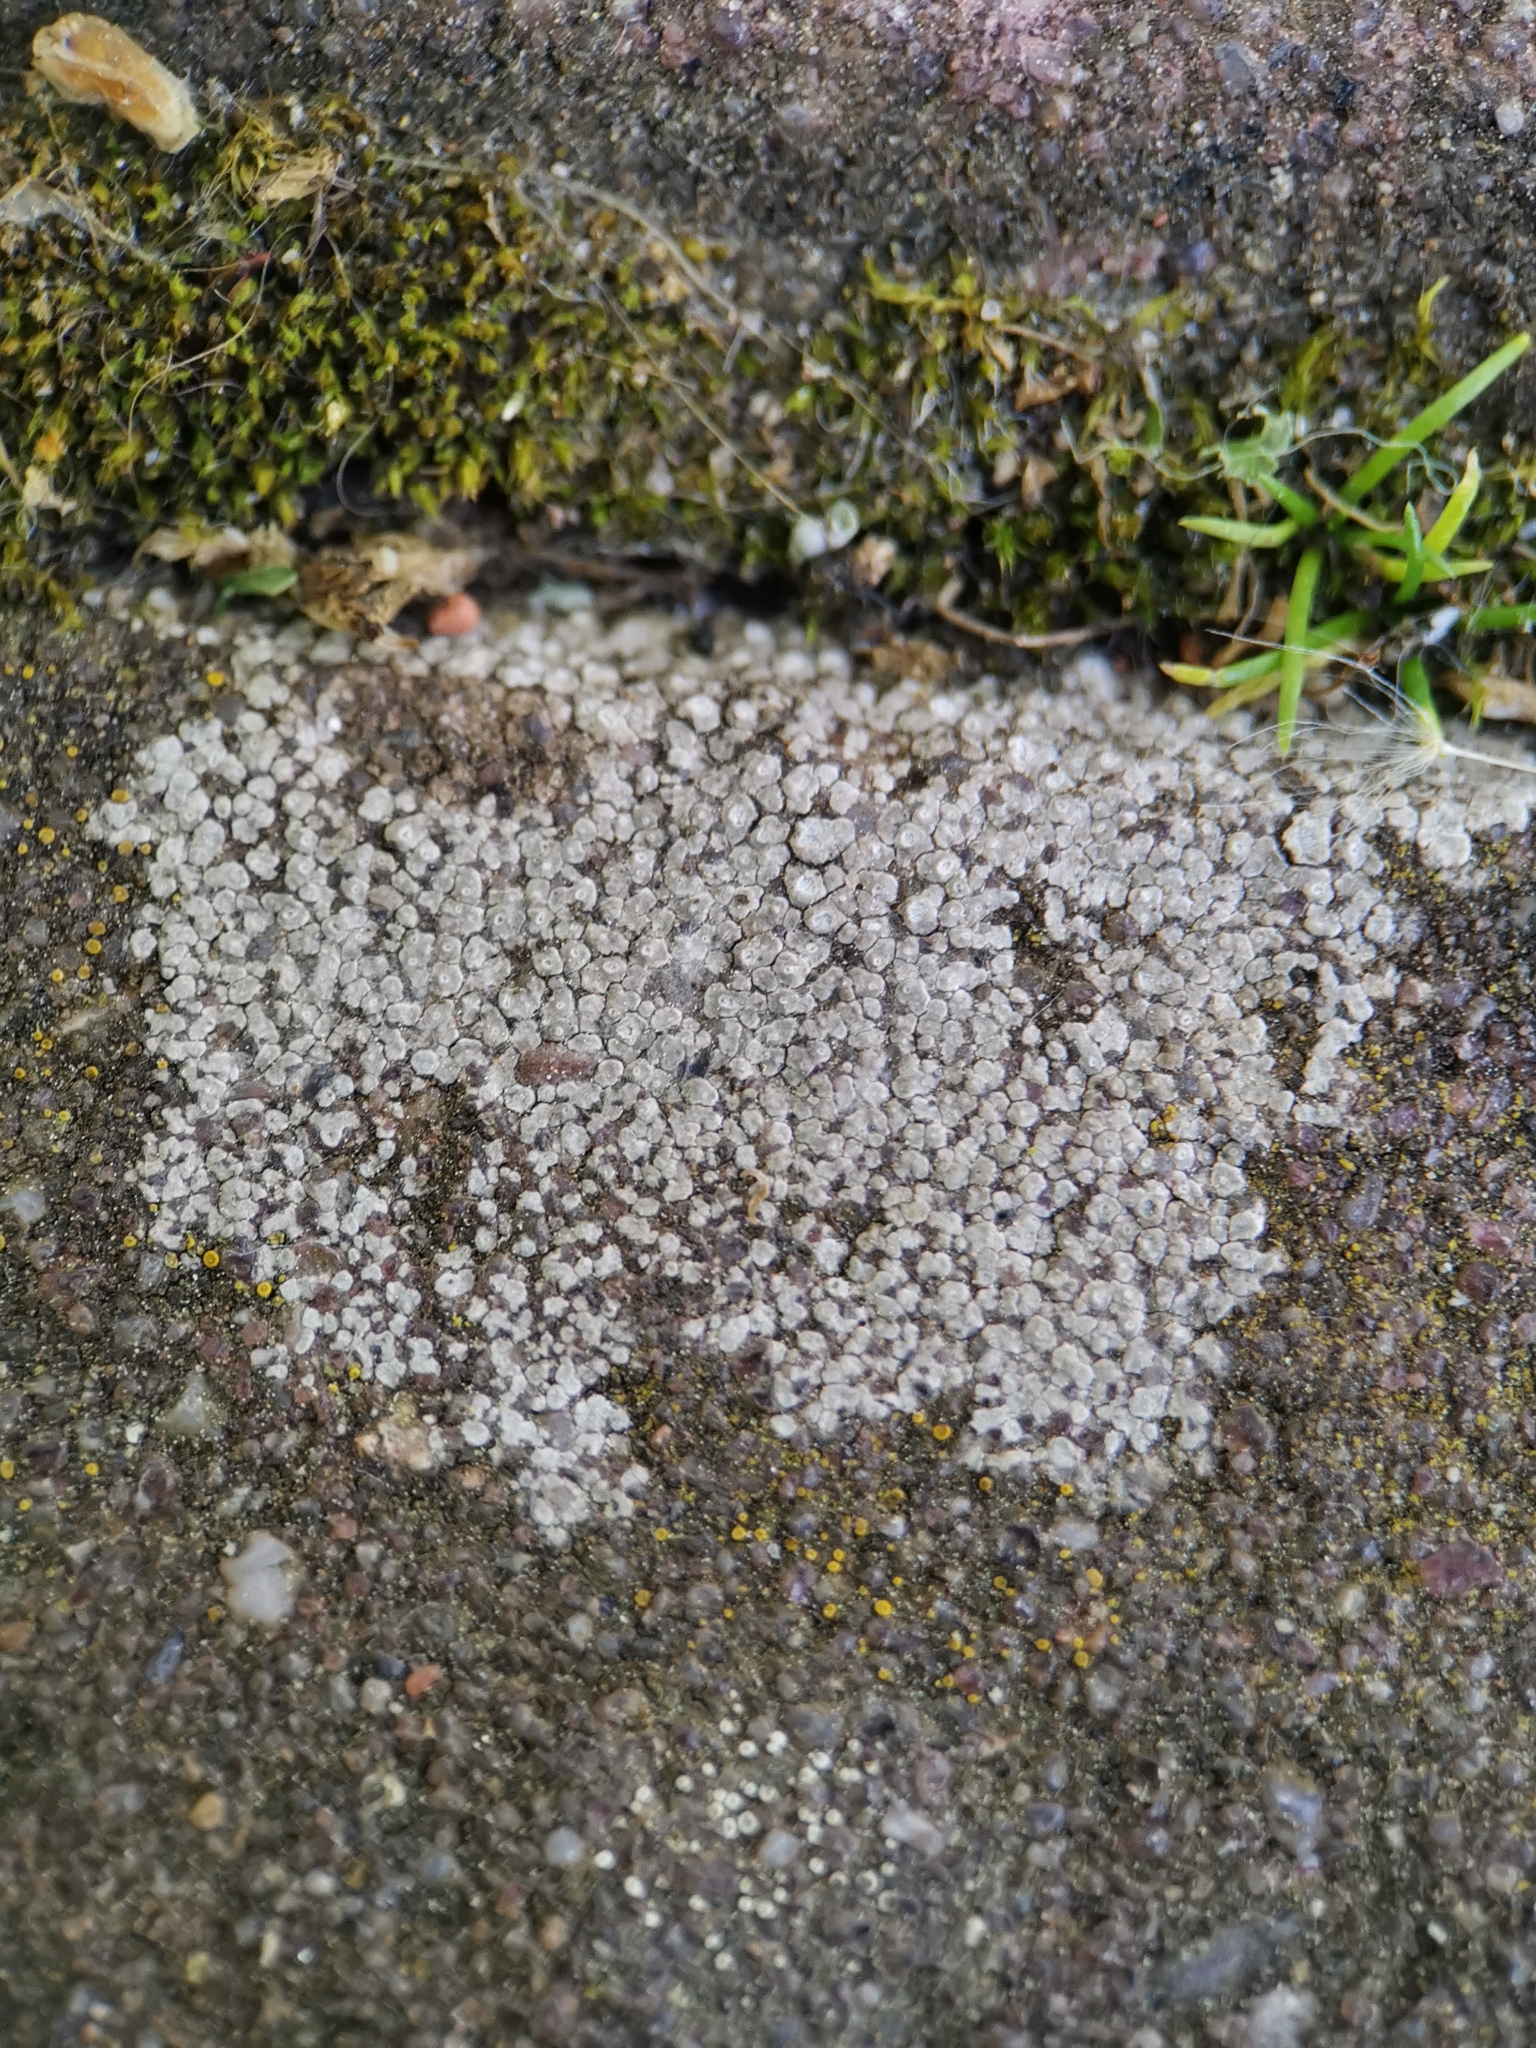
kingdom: Fungi
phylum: Ascomycota
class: Lecanoromycetes
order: Pertusariales
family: Megasporaceae
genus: Circinaria
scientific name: Circinaria contorta
